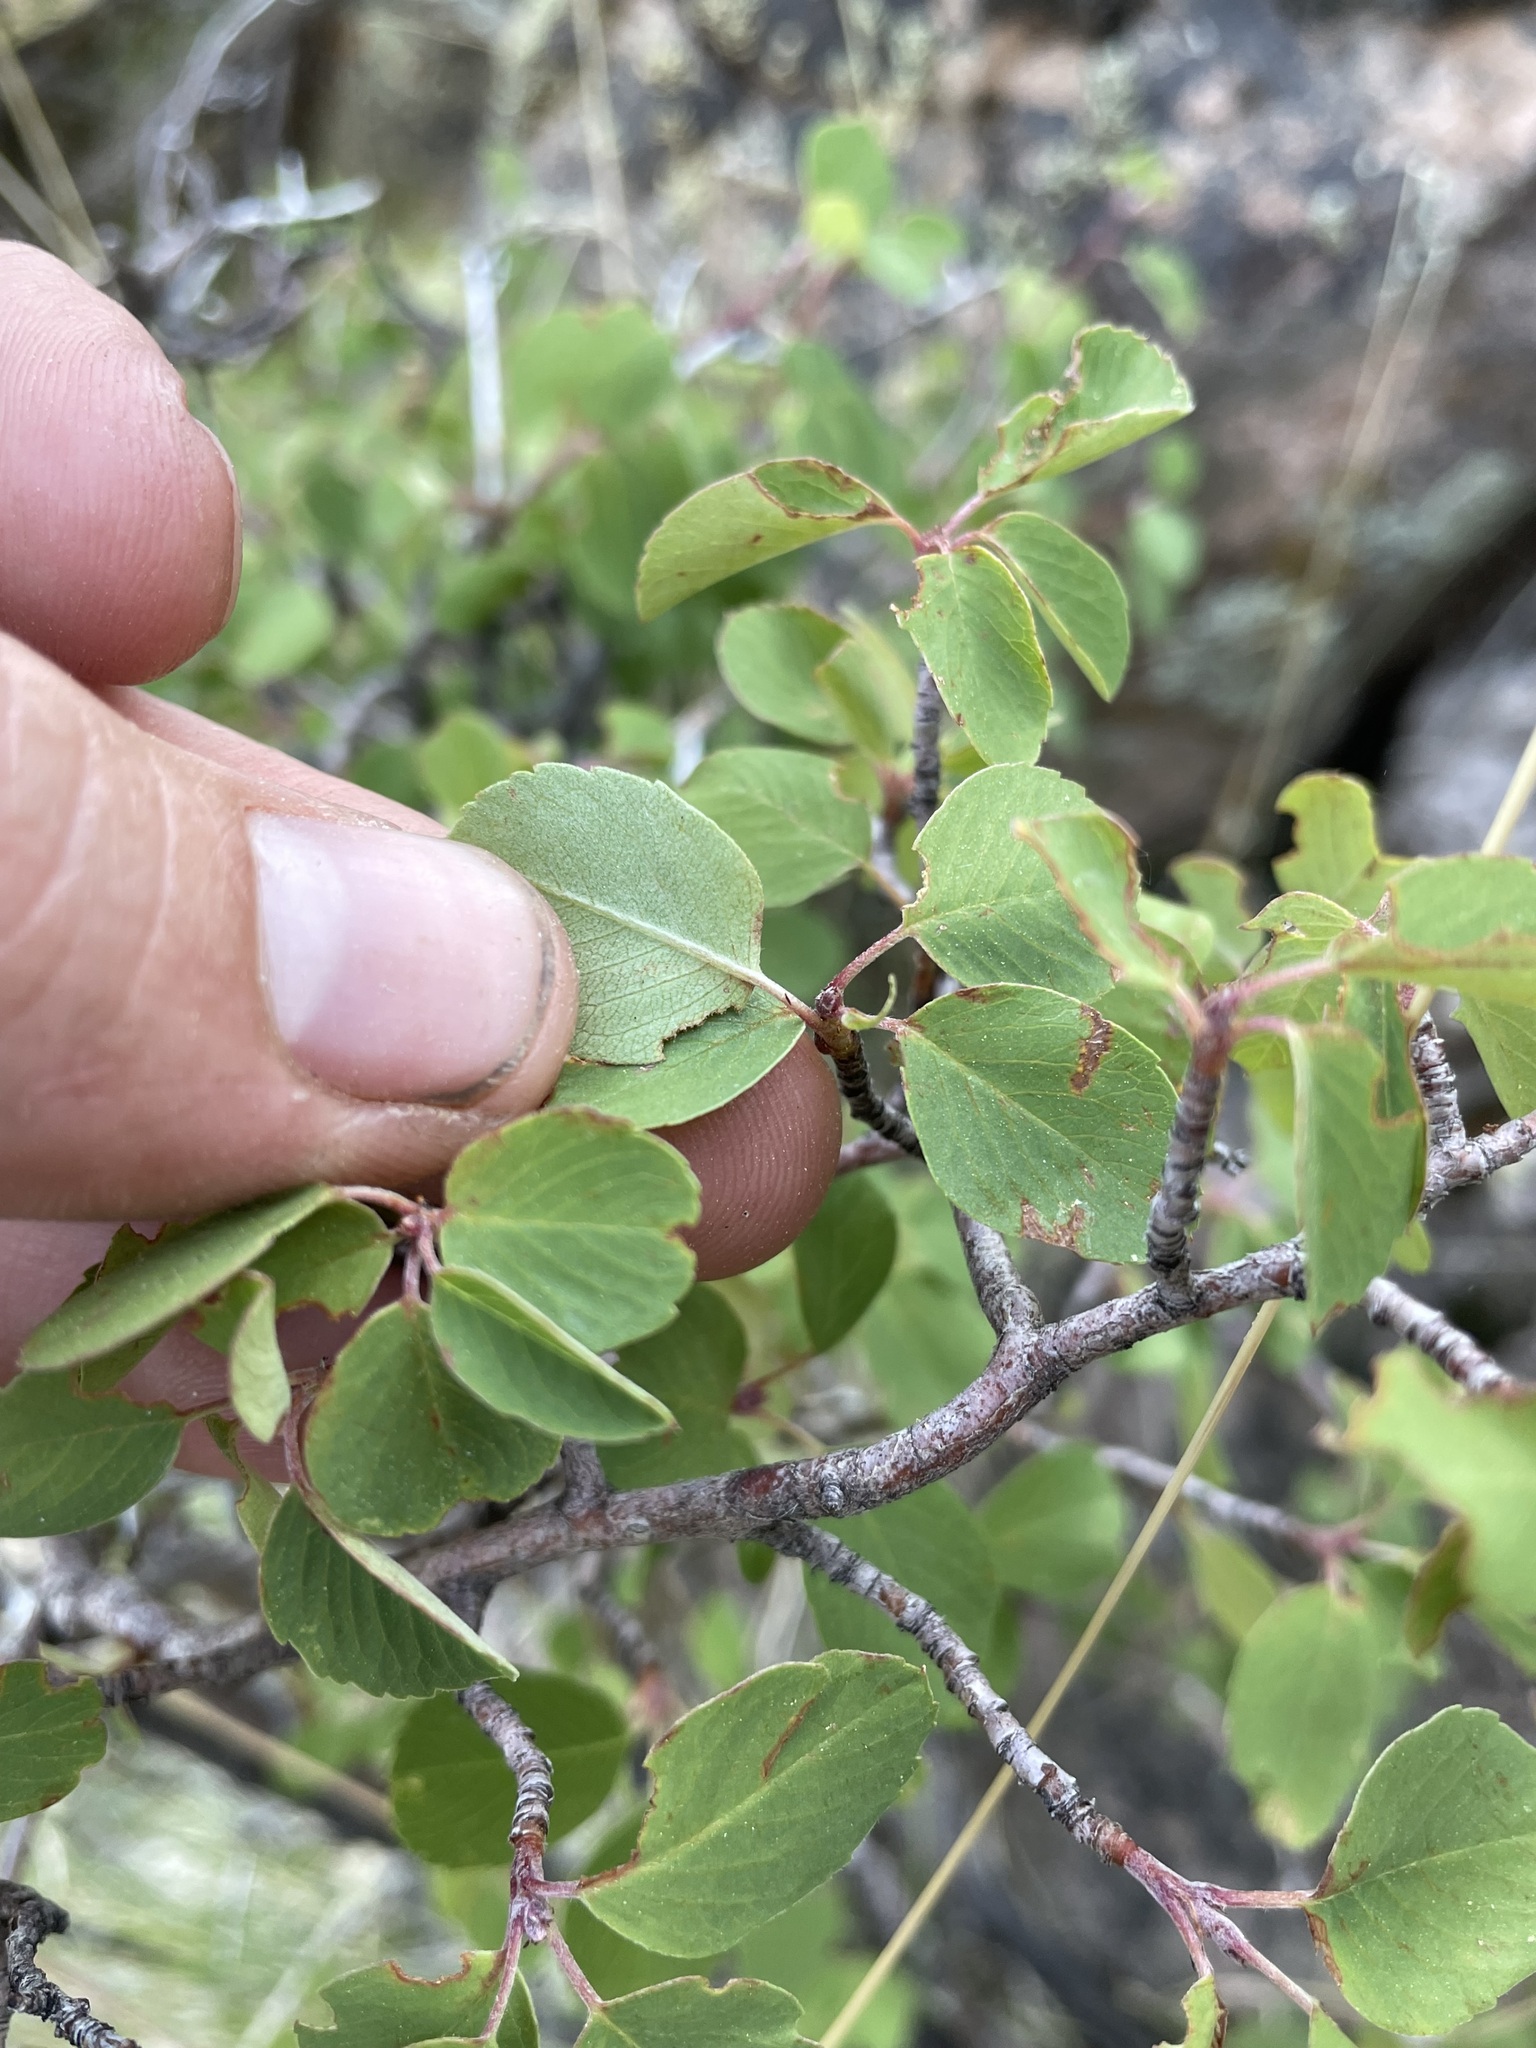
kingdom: Plantae
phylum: Tracheophyta
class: Magnoliopsida
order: Rosales
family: Rosaceae
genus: Amelanchier
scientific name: Amelanchier utahensis
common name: Utah serviceberry
